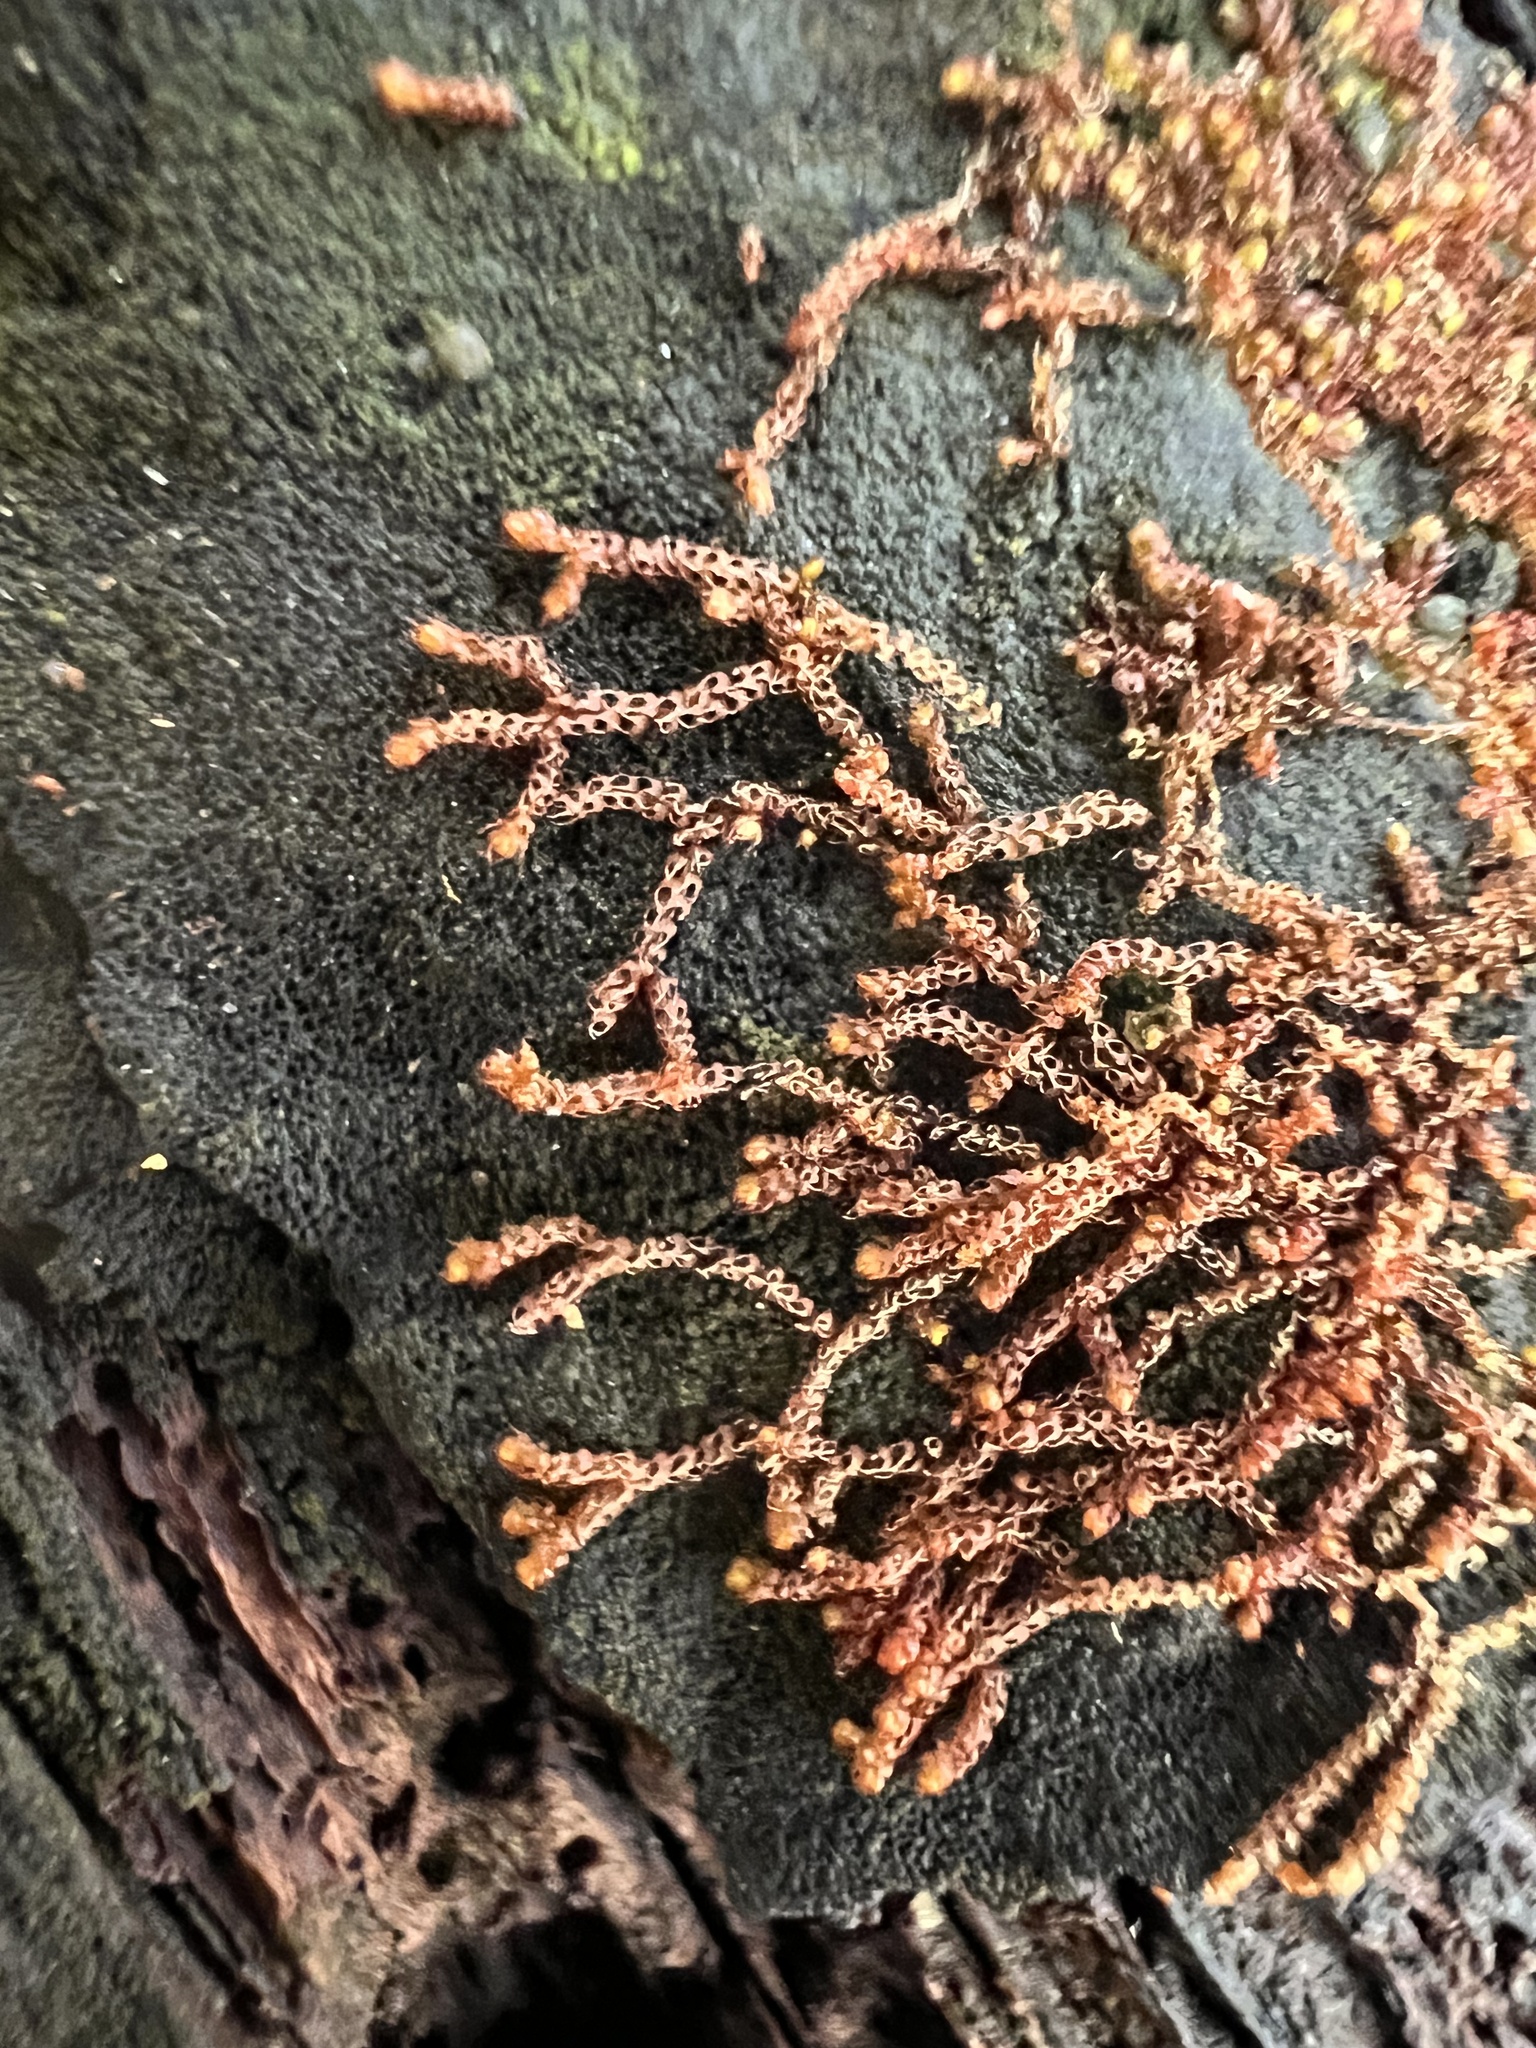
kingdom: Plantae
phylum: Marchantiophyta
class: Jungermanniopsida
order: Jungermanniales
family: Cephaloziaceae
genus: Nowellia
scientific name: Nowellia curvifolia
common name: Wood rustwort
